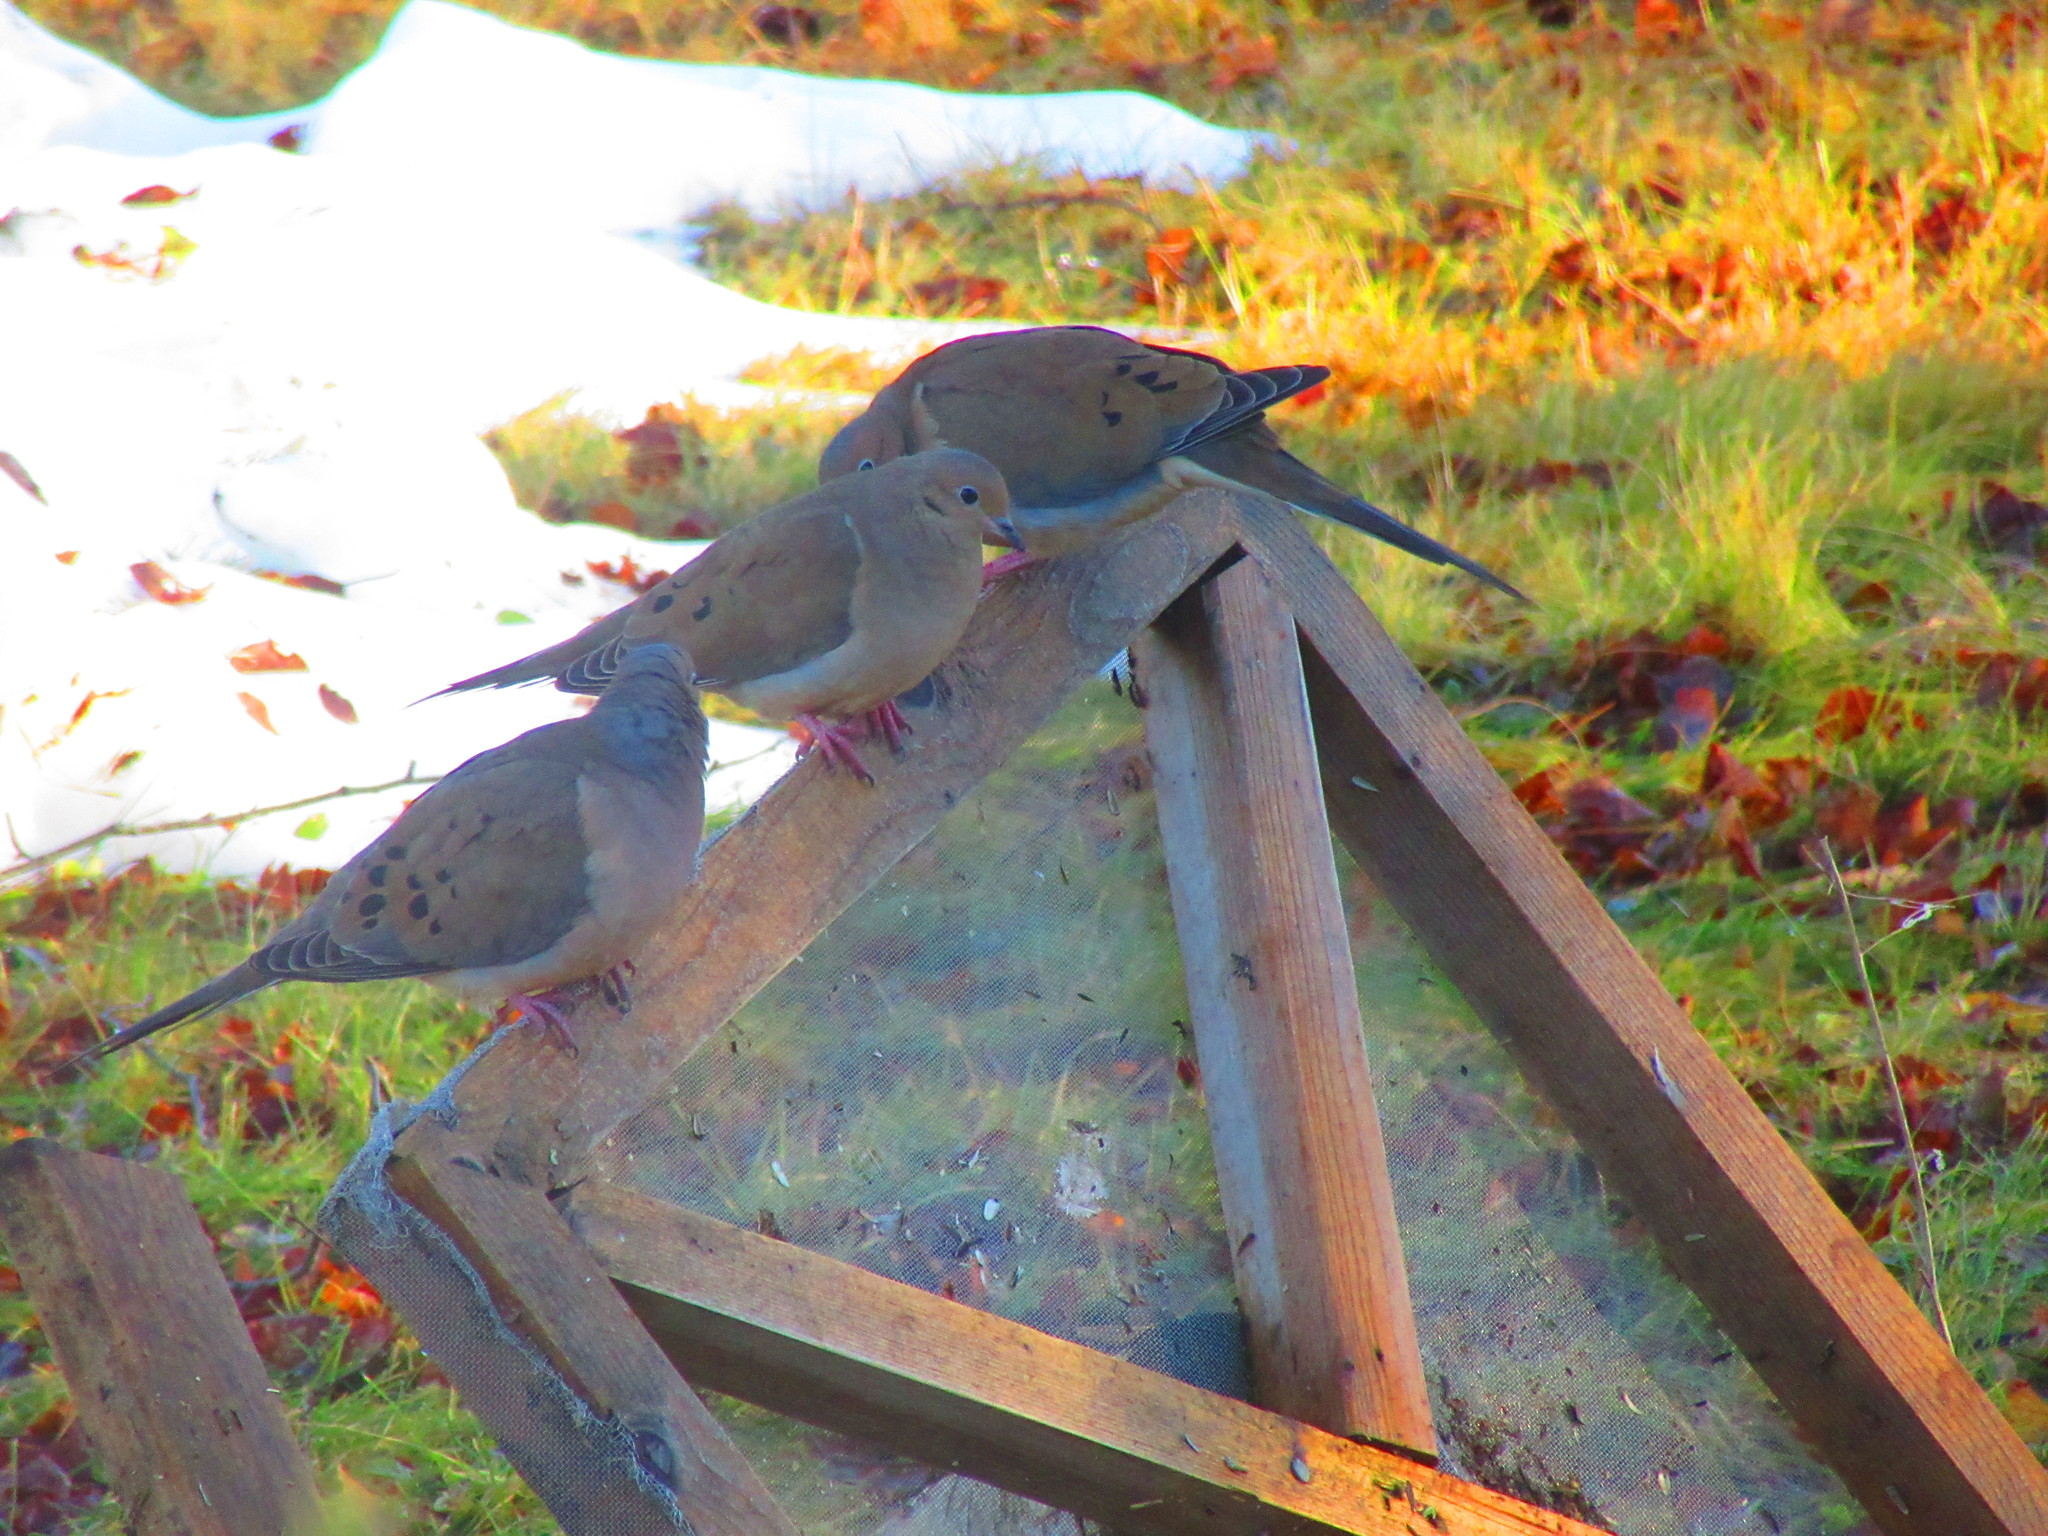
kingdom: Animalia
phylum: Chordata
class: Aves
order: Columbiformes
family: Columbidae
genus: Zenaida
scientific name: Zenaida macroura
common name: Mourning dove
